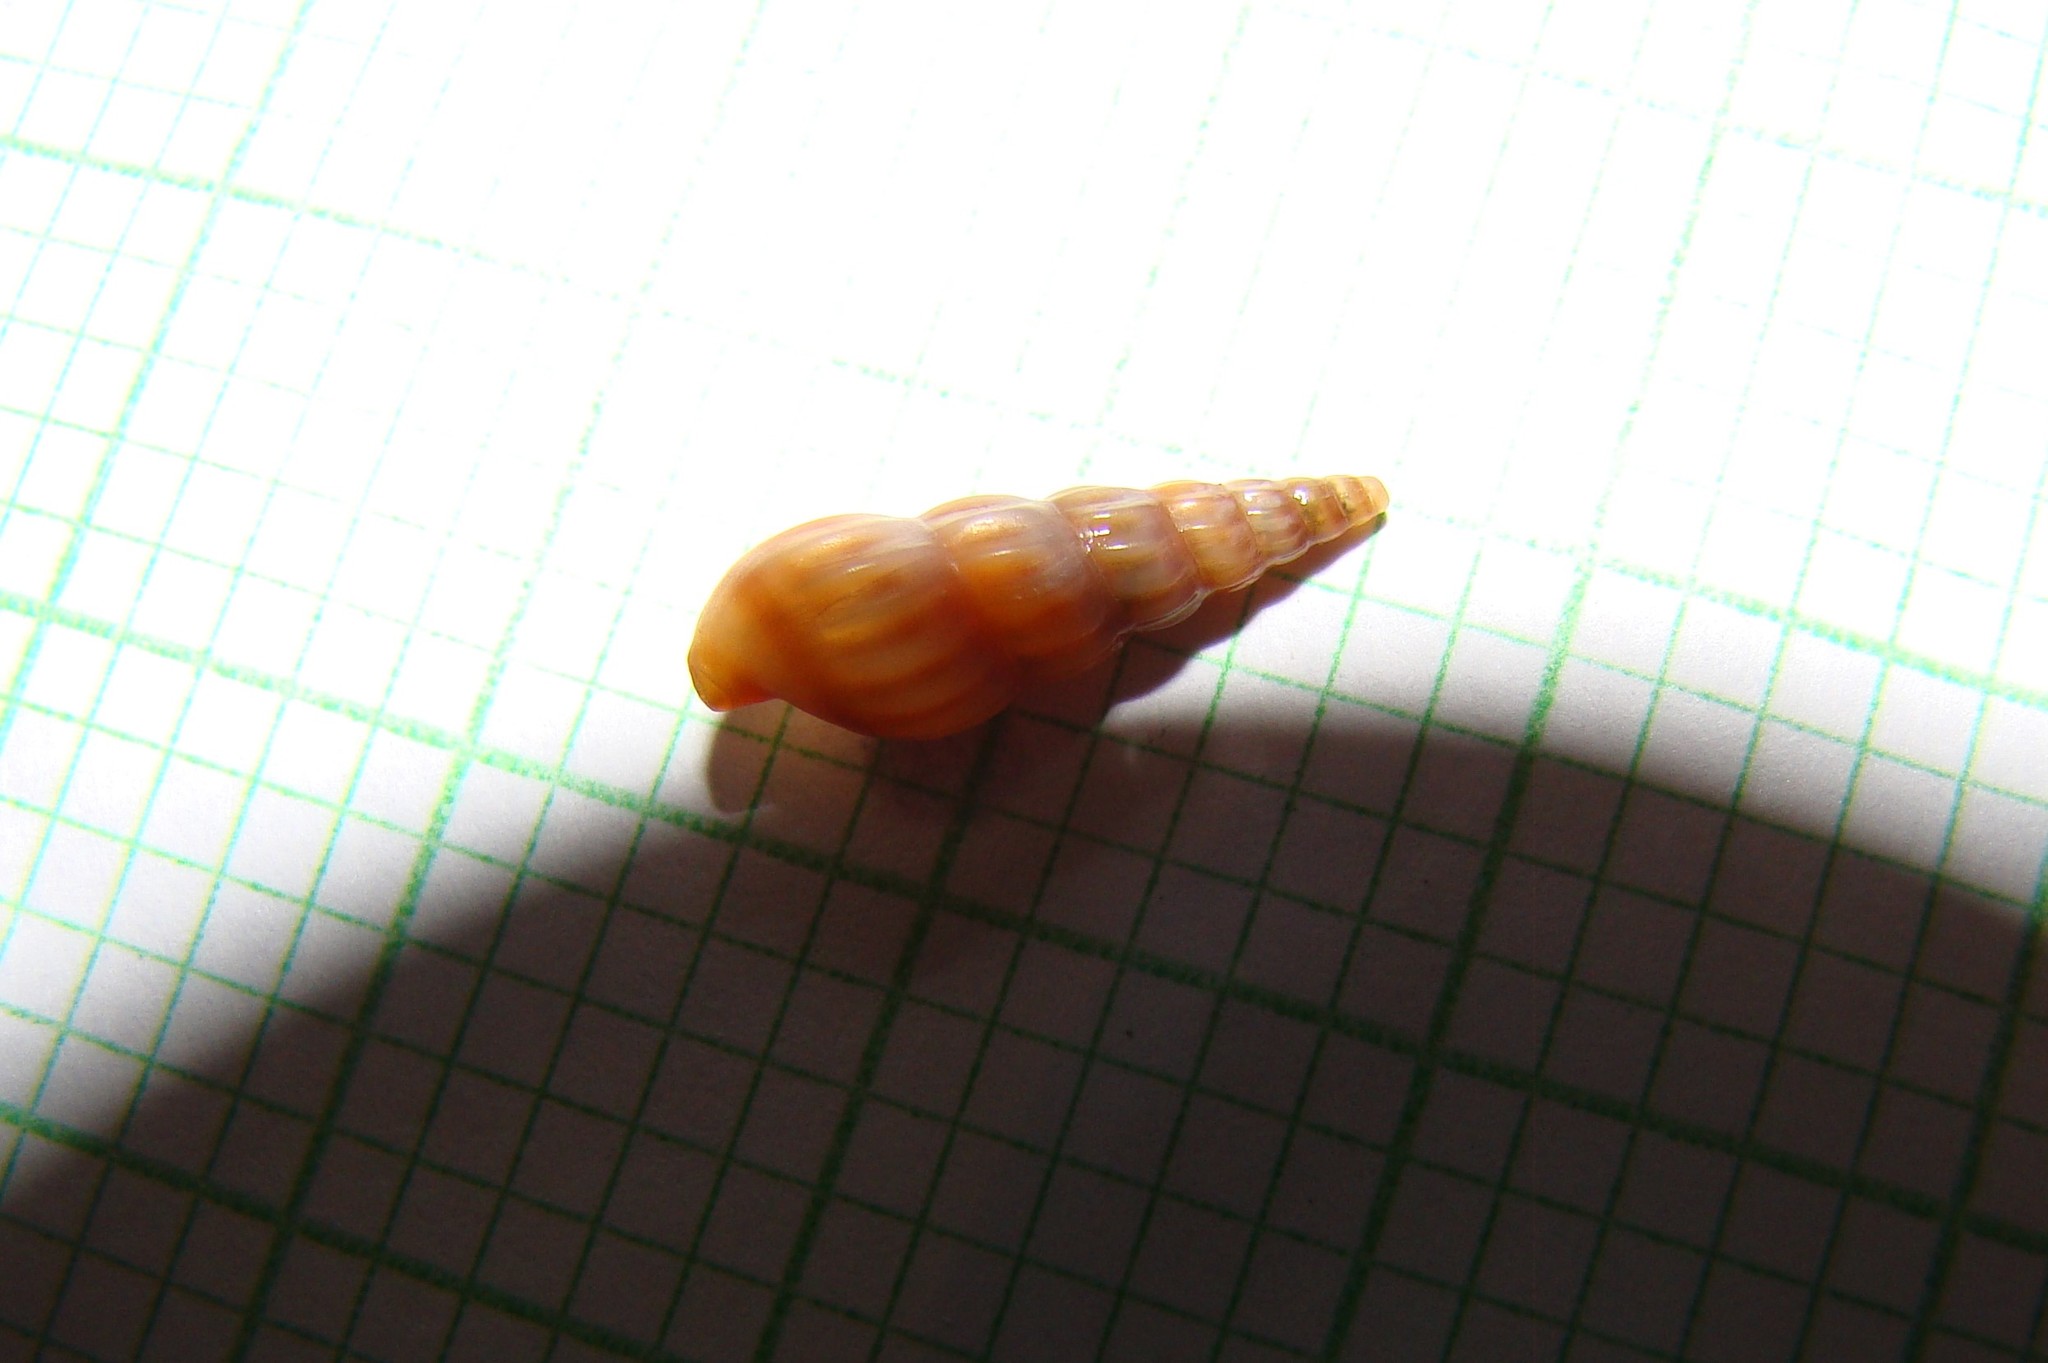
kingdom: Animalia
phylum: Mollusca
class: Gastropoda
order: Neogastropoda
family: Terebridae
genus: Duplicaria
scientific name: Duplicaria tristis
